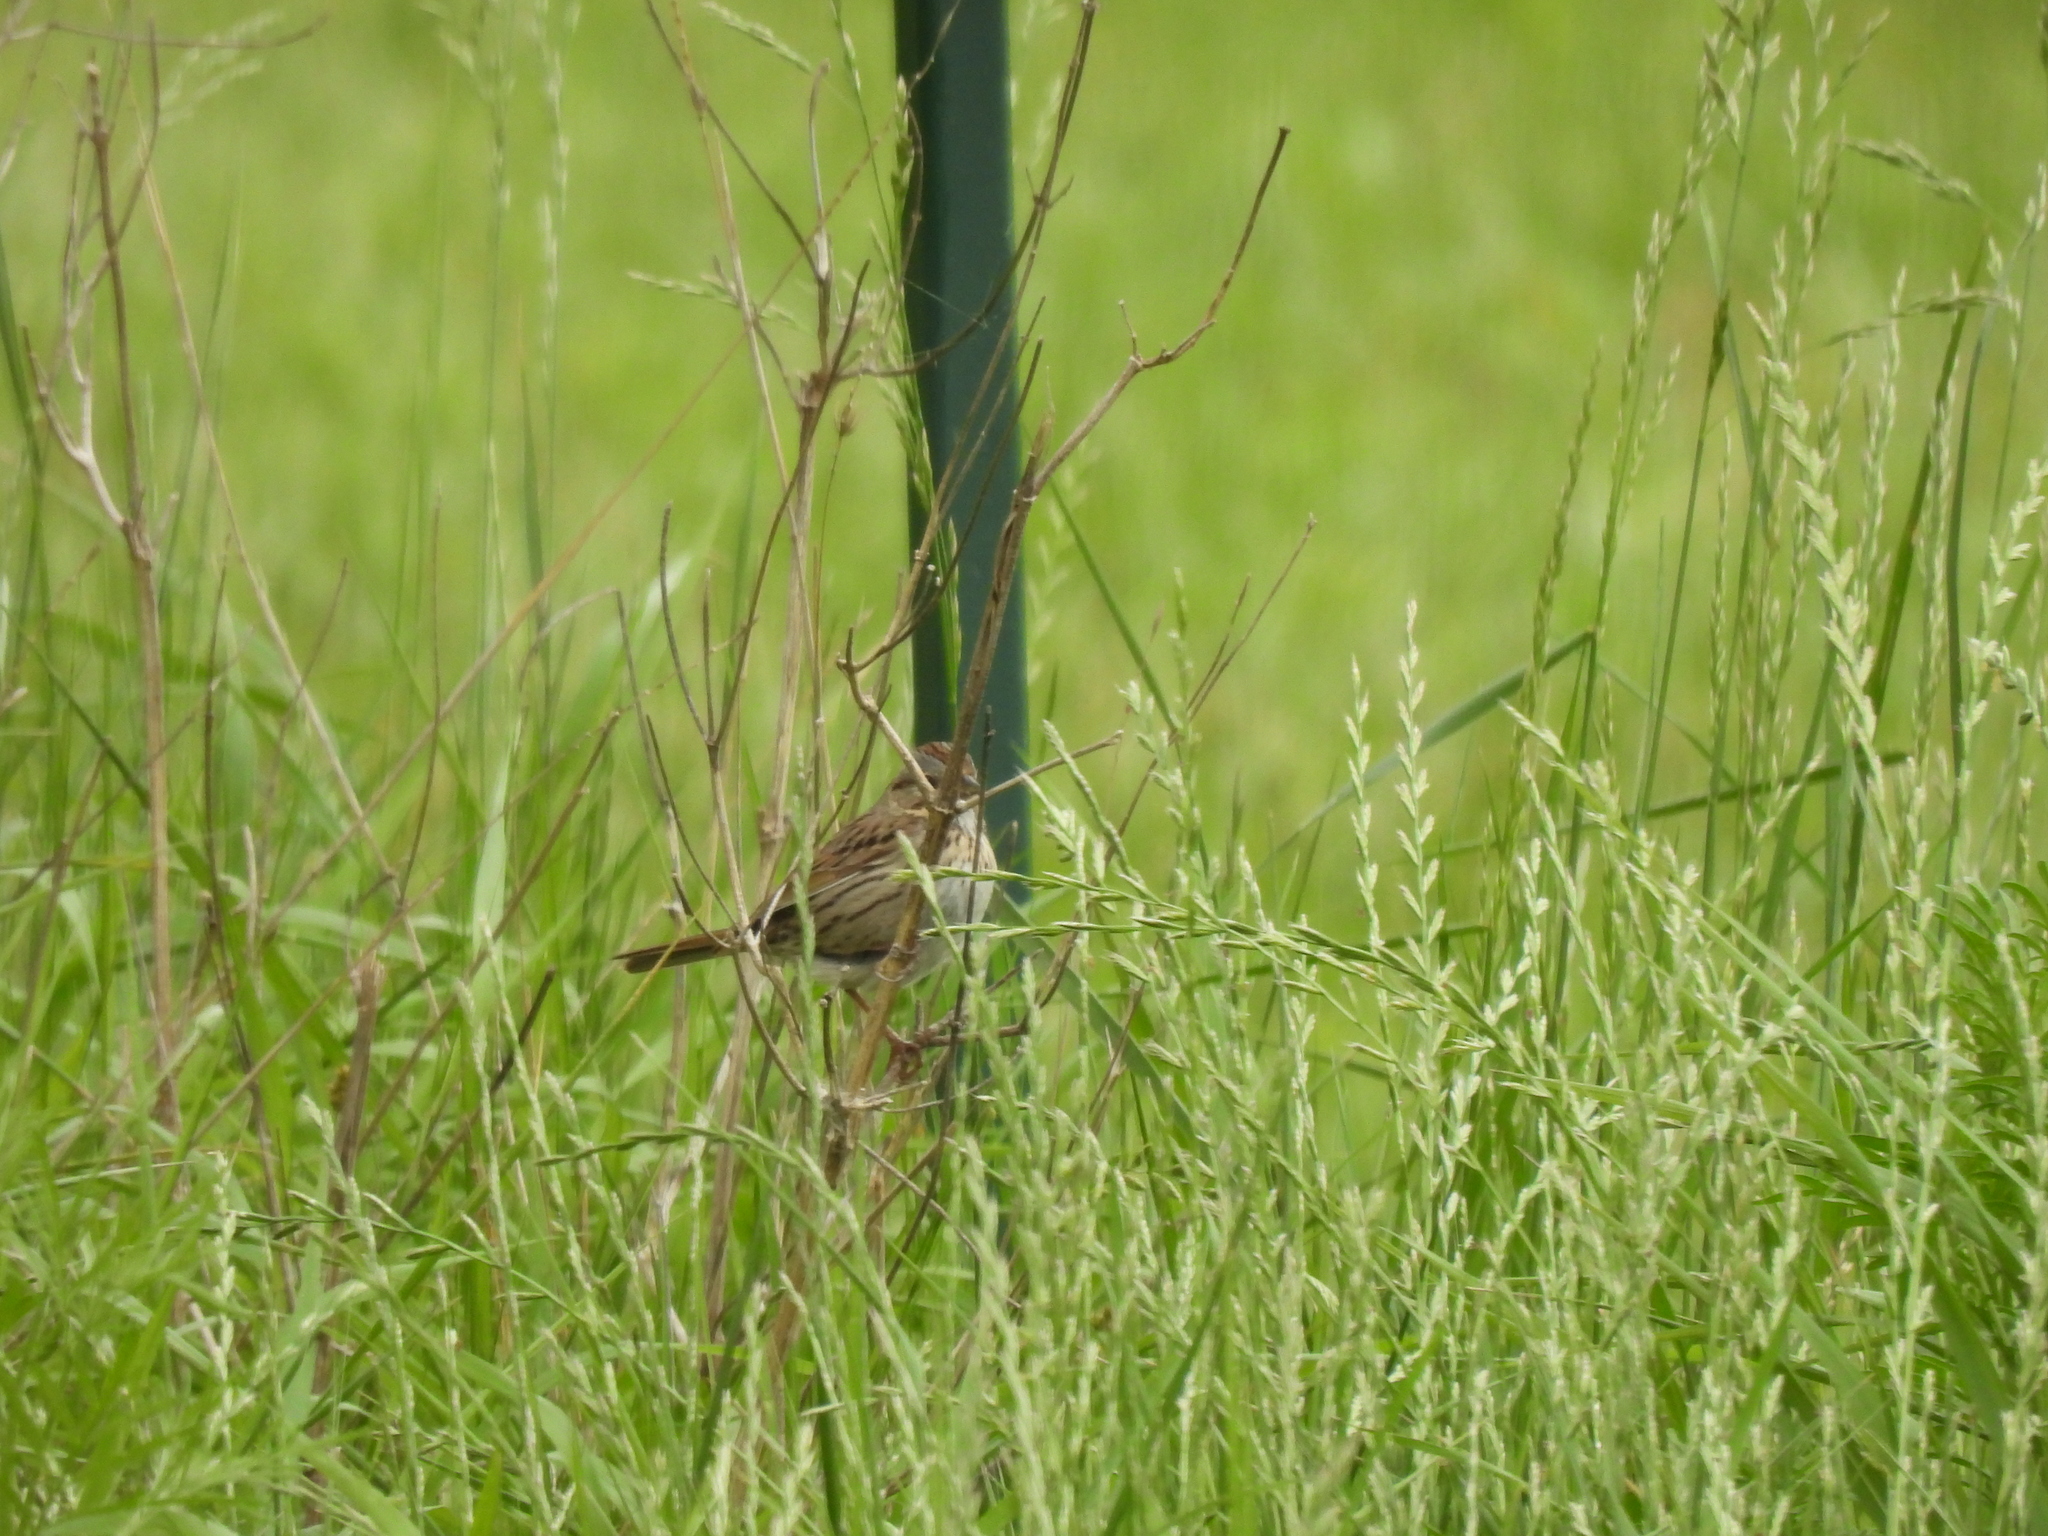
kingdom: Animalia
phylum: Chordata
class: Aves
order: Passeriformes
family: Passerellidae
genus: Melospiza
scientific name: Melospiza lincolnii
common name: Lincoln's sparrow
